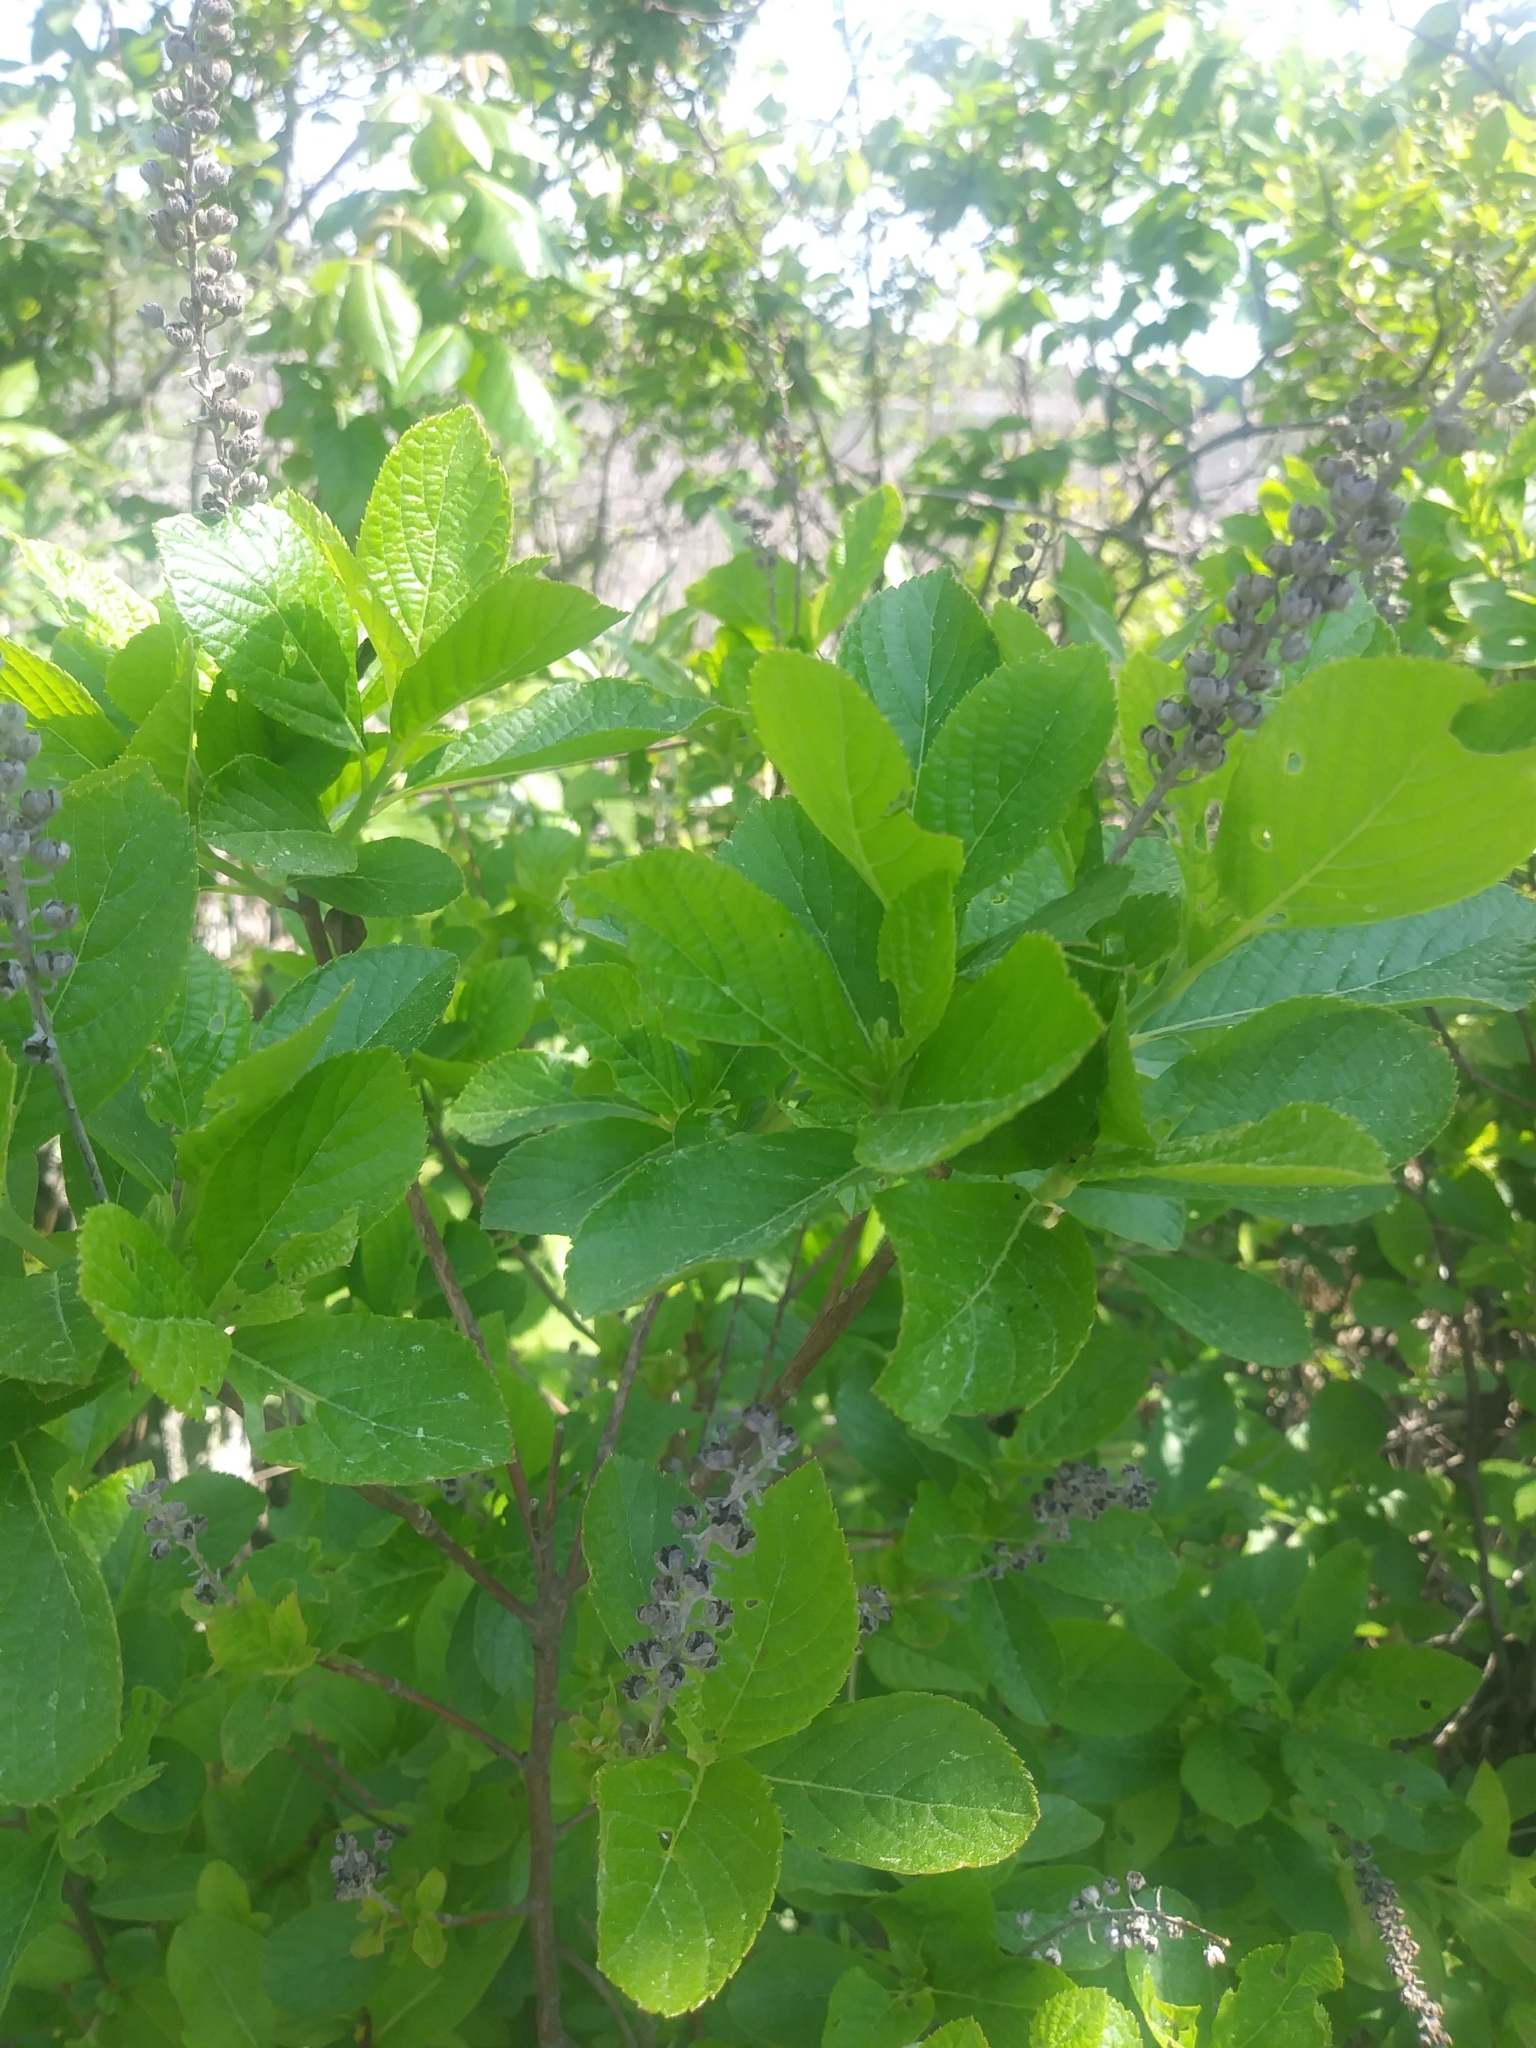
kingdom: Plantae
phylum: Tracheophyta
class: Magnoliopsida
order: Ericales
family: Clethraceae
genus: Clethra
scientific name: Clethra alnifolia
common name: Sweet pepperbush
